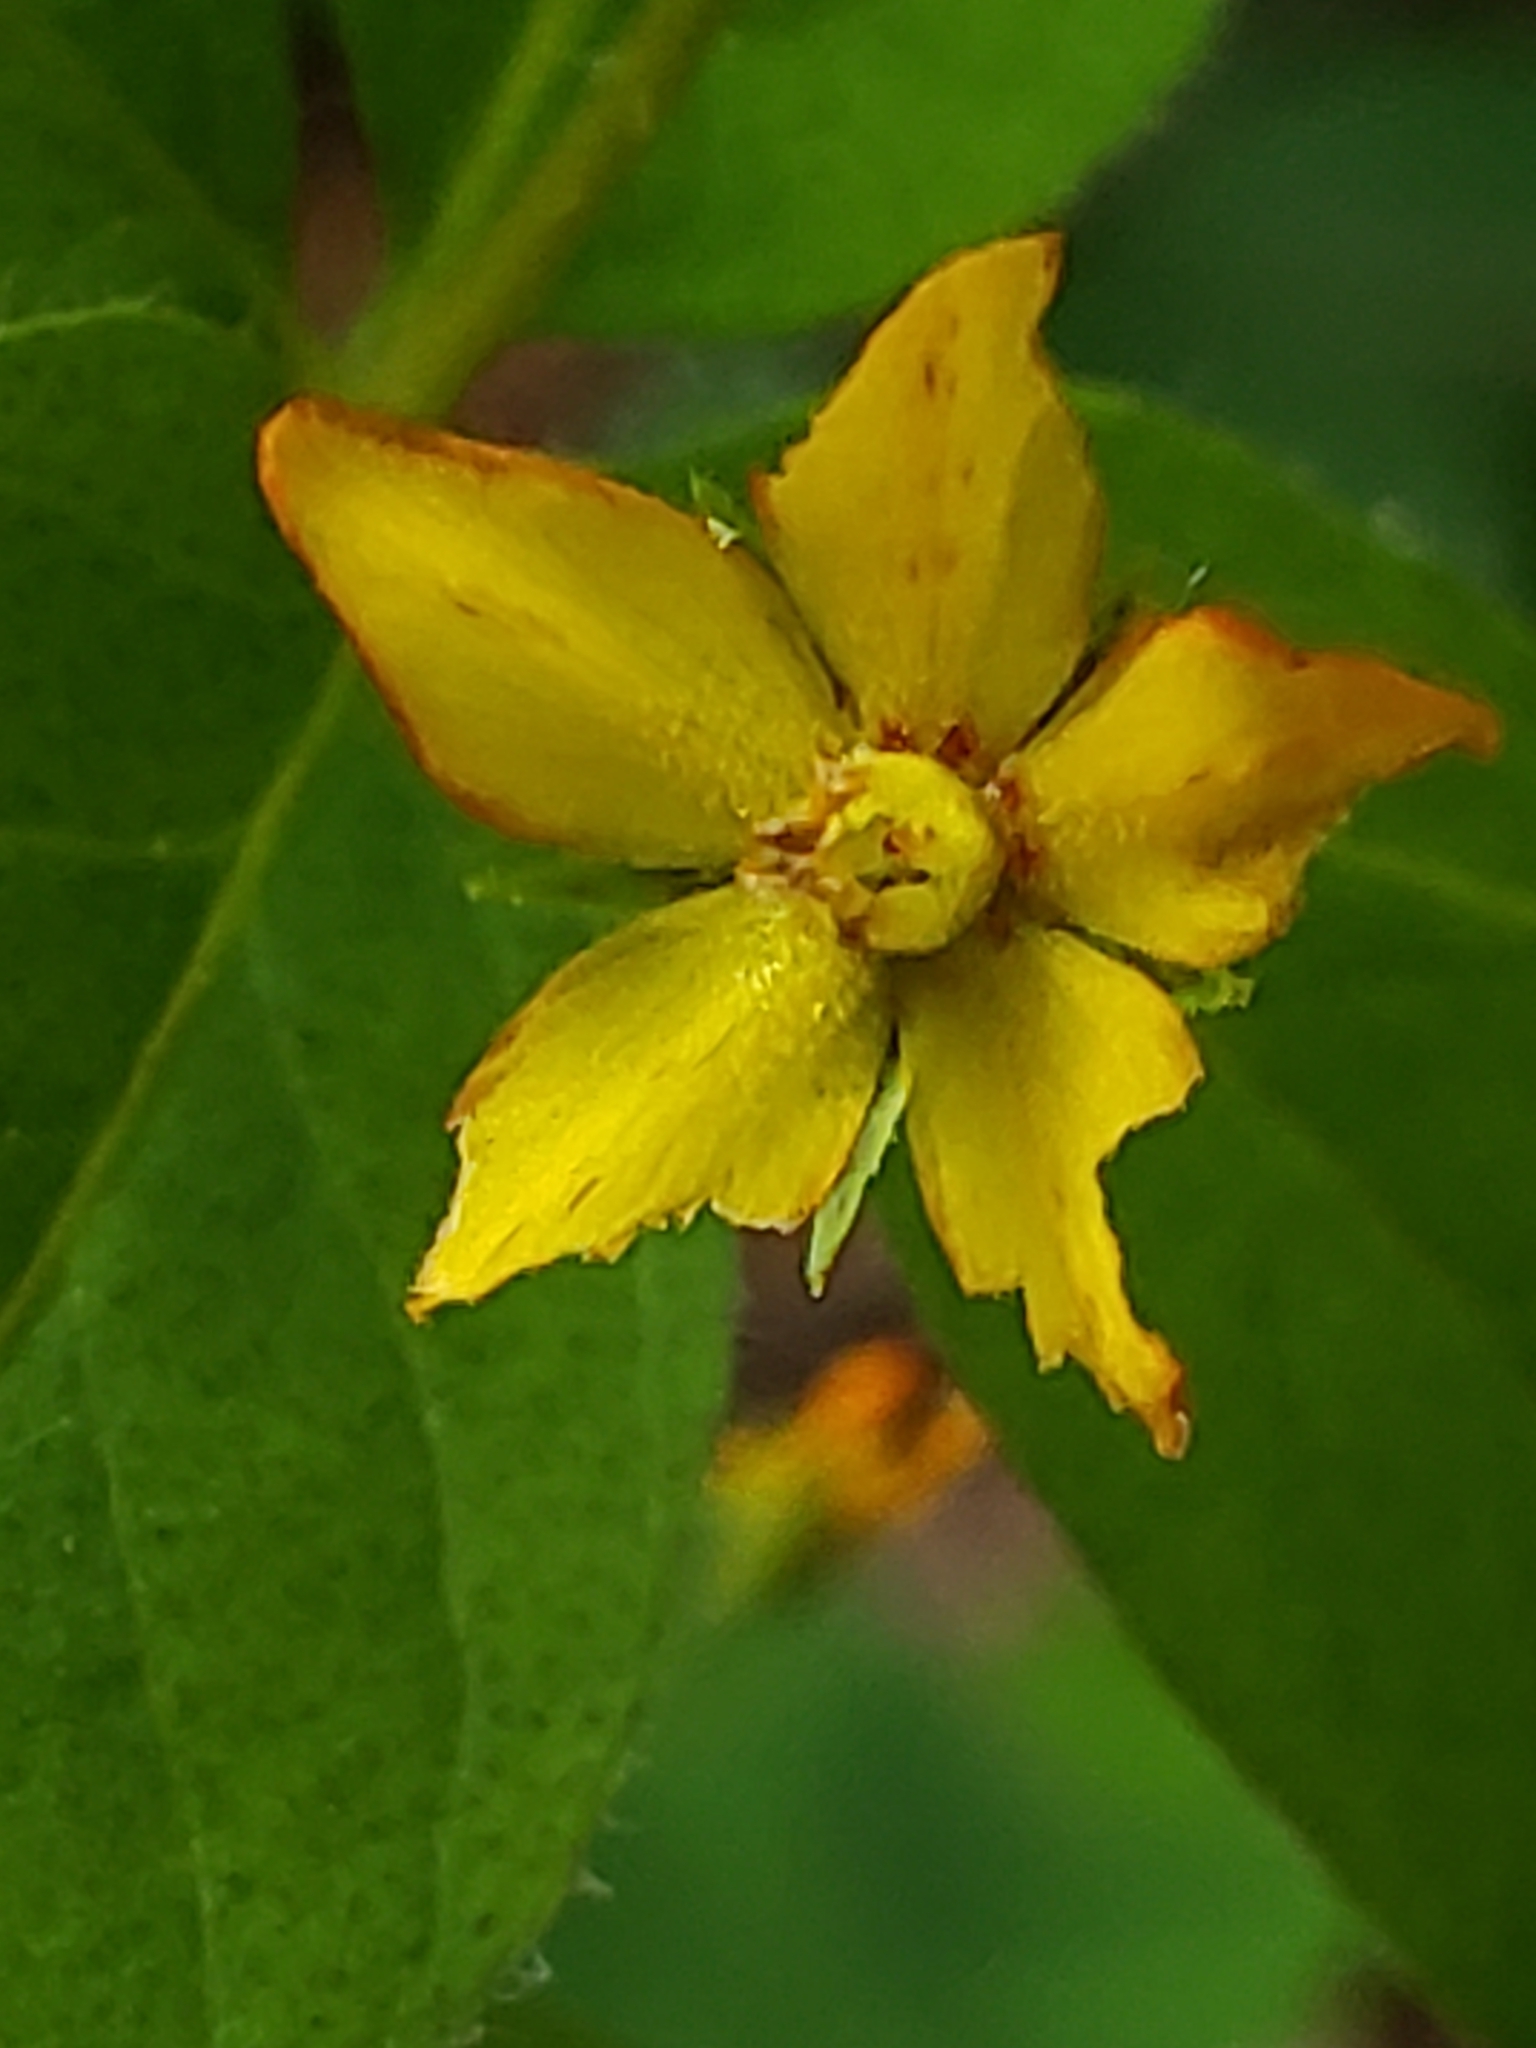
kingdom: Plantae
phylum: Tracheophyta
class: Magnoliopsida
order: Ericales
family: Primulaceae
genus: Lysimachia
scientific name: Lysimachia quadrifolia
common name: Whorled loosestrife
